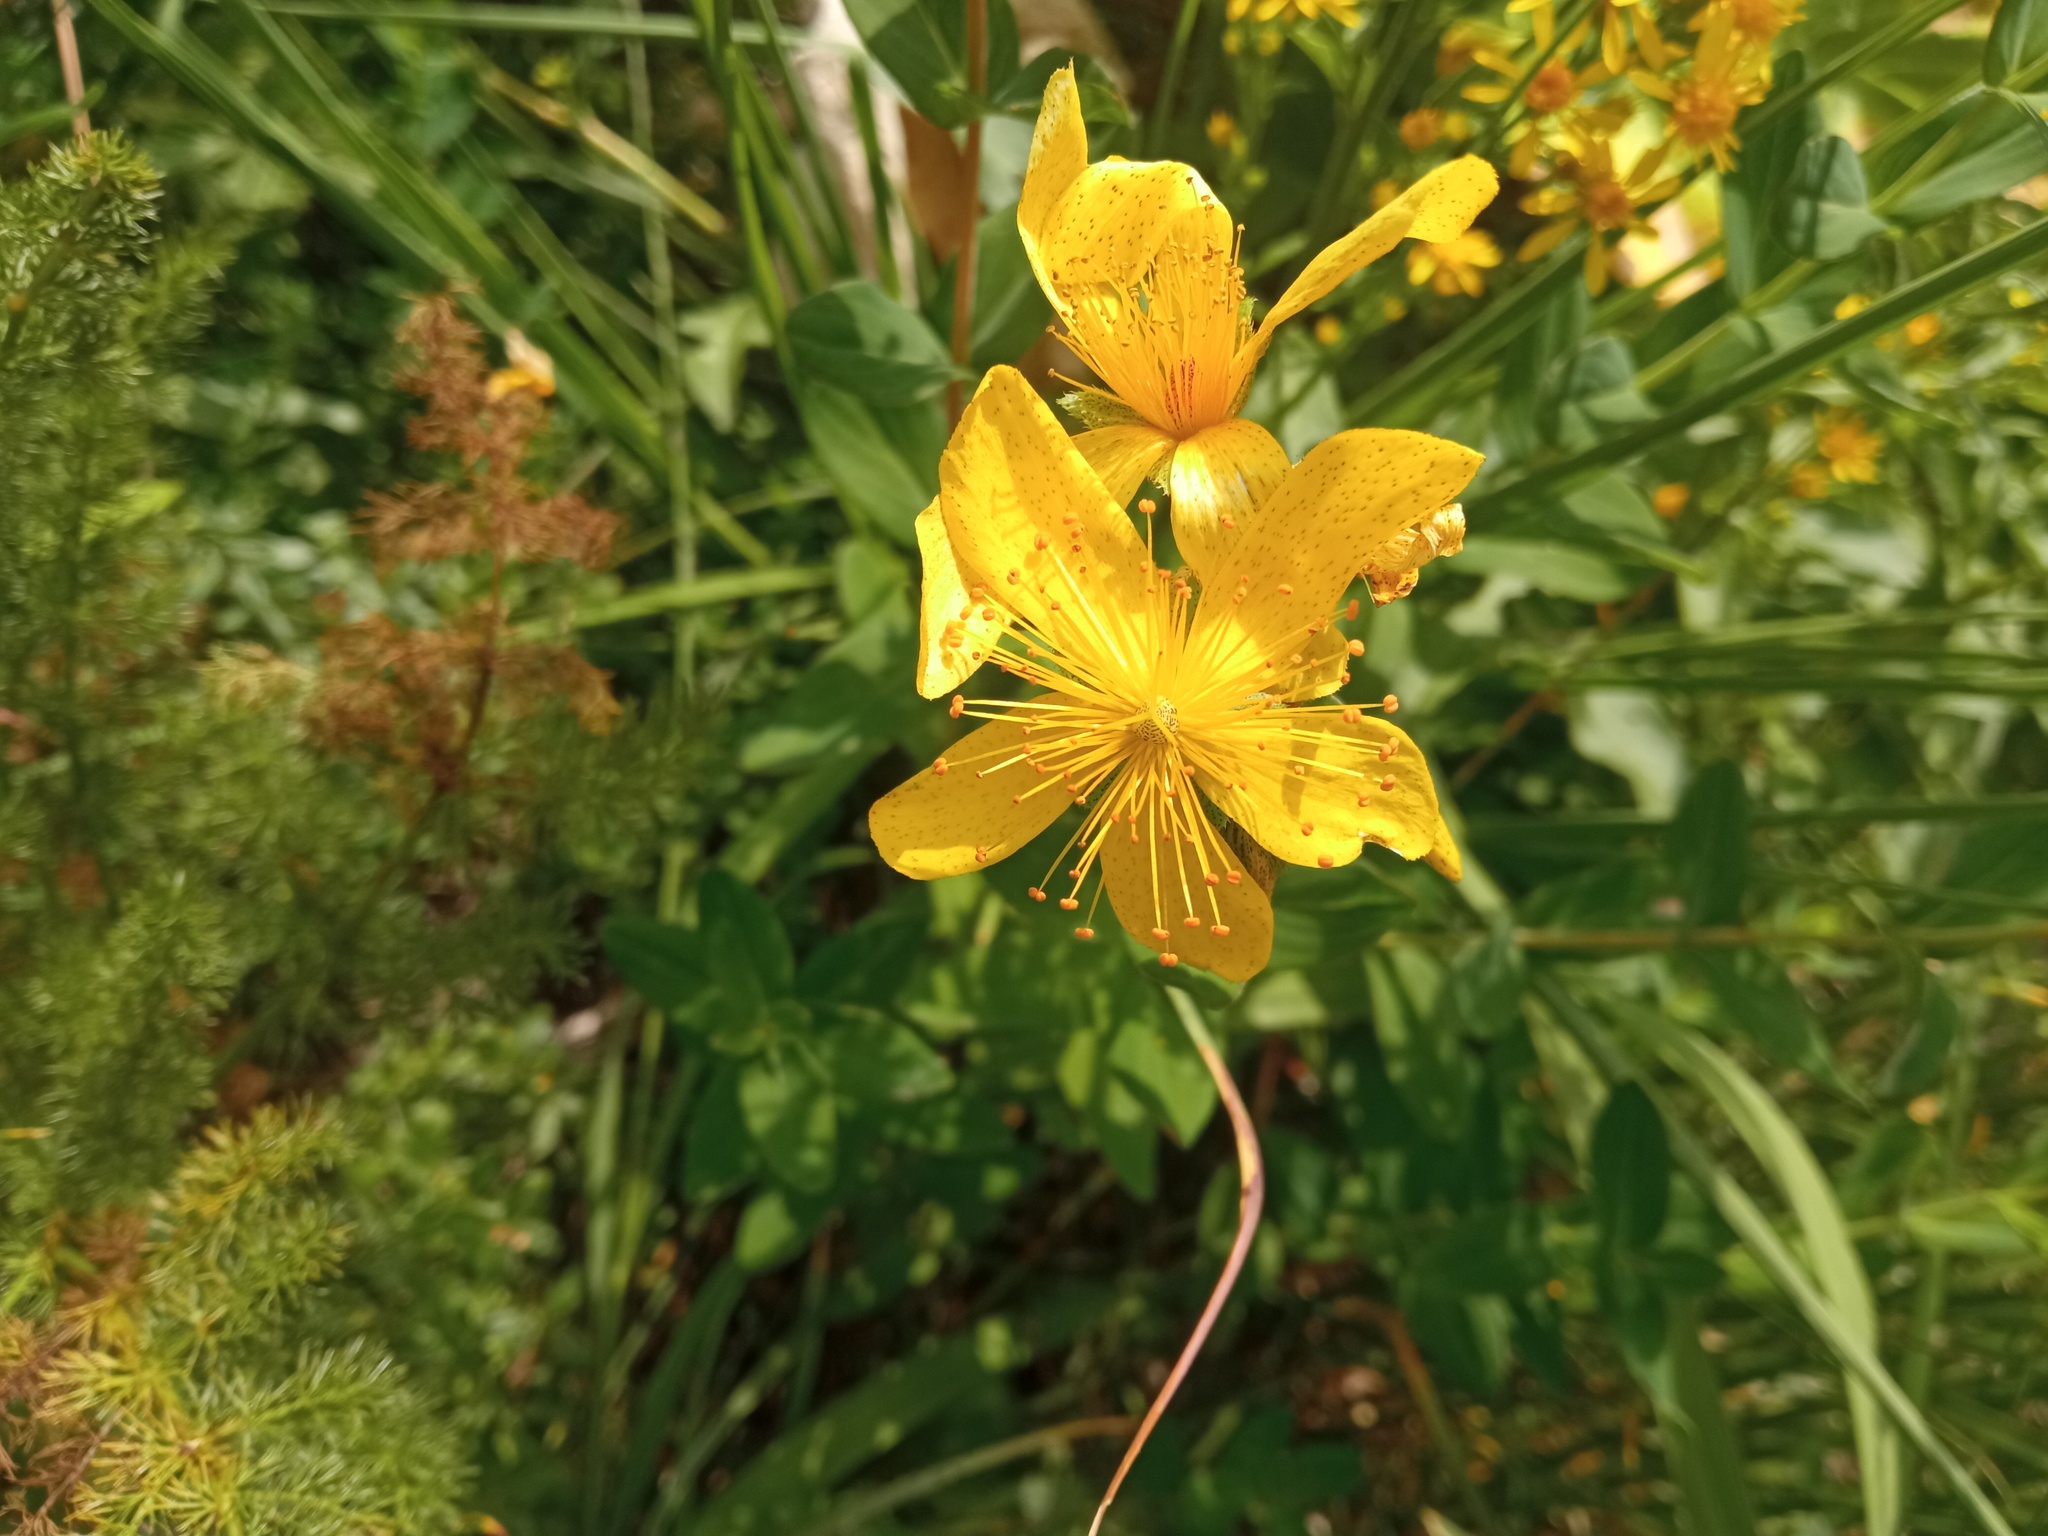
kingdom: Plantae
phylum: Tracheophyta
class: Magnoliopsida
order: Malpighiales
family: Hypericaceae
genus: Hypericum
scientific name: Hypericum richeri
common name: Alpine st john's-wort
